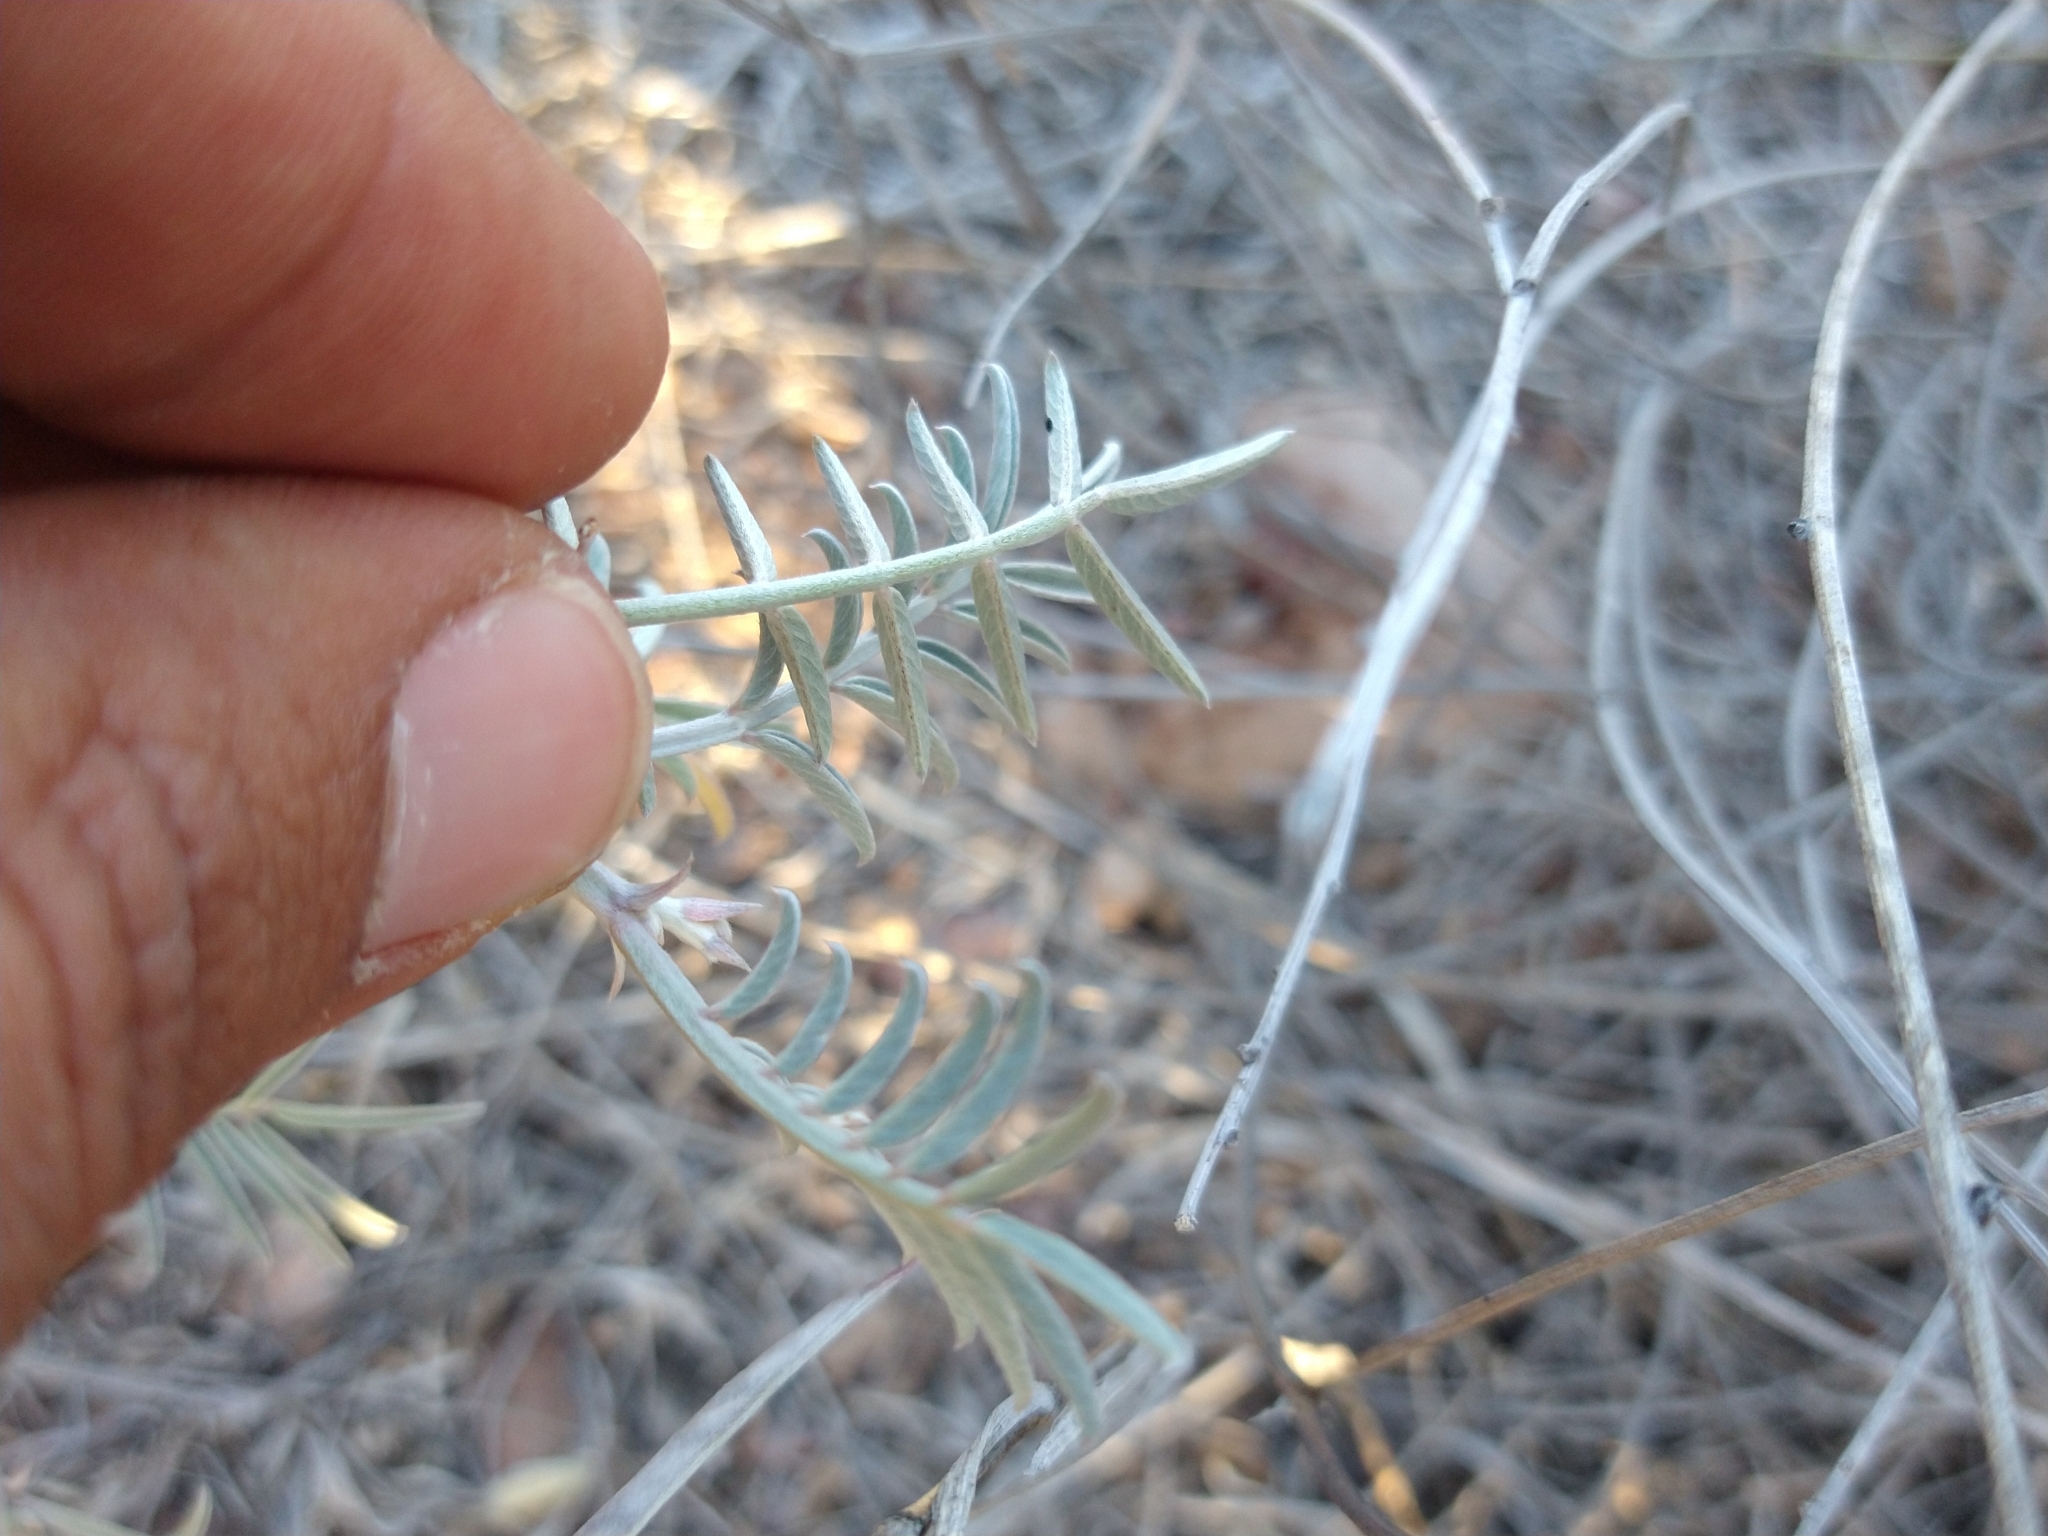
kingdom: Plantae
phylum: Tracheophyta
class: Magnoliopsida
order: Fabales
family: Fabaceae
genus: Tephrosia
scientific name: Tephrosia palmeri
